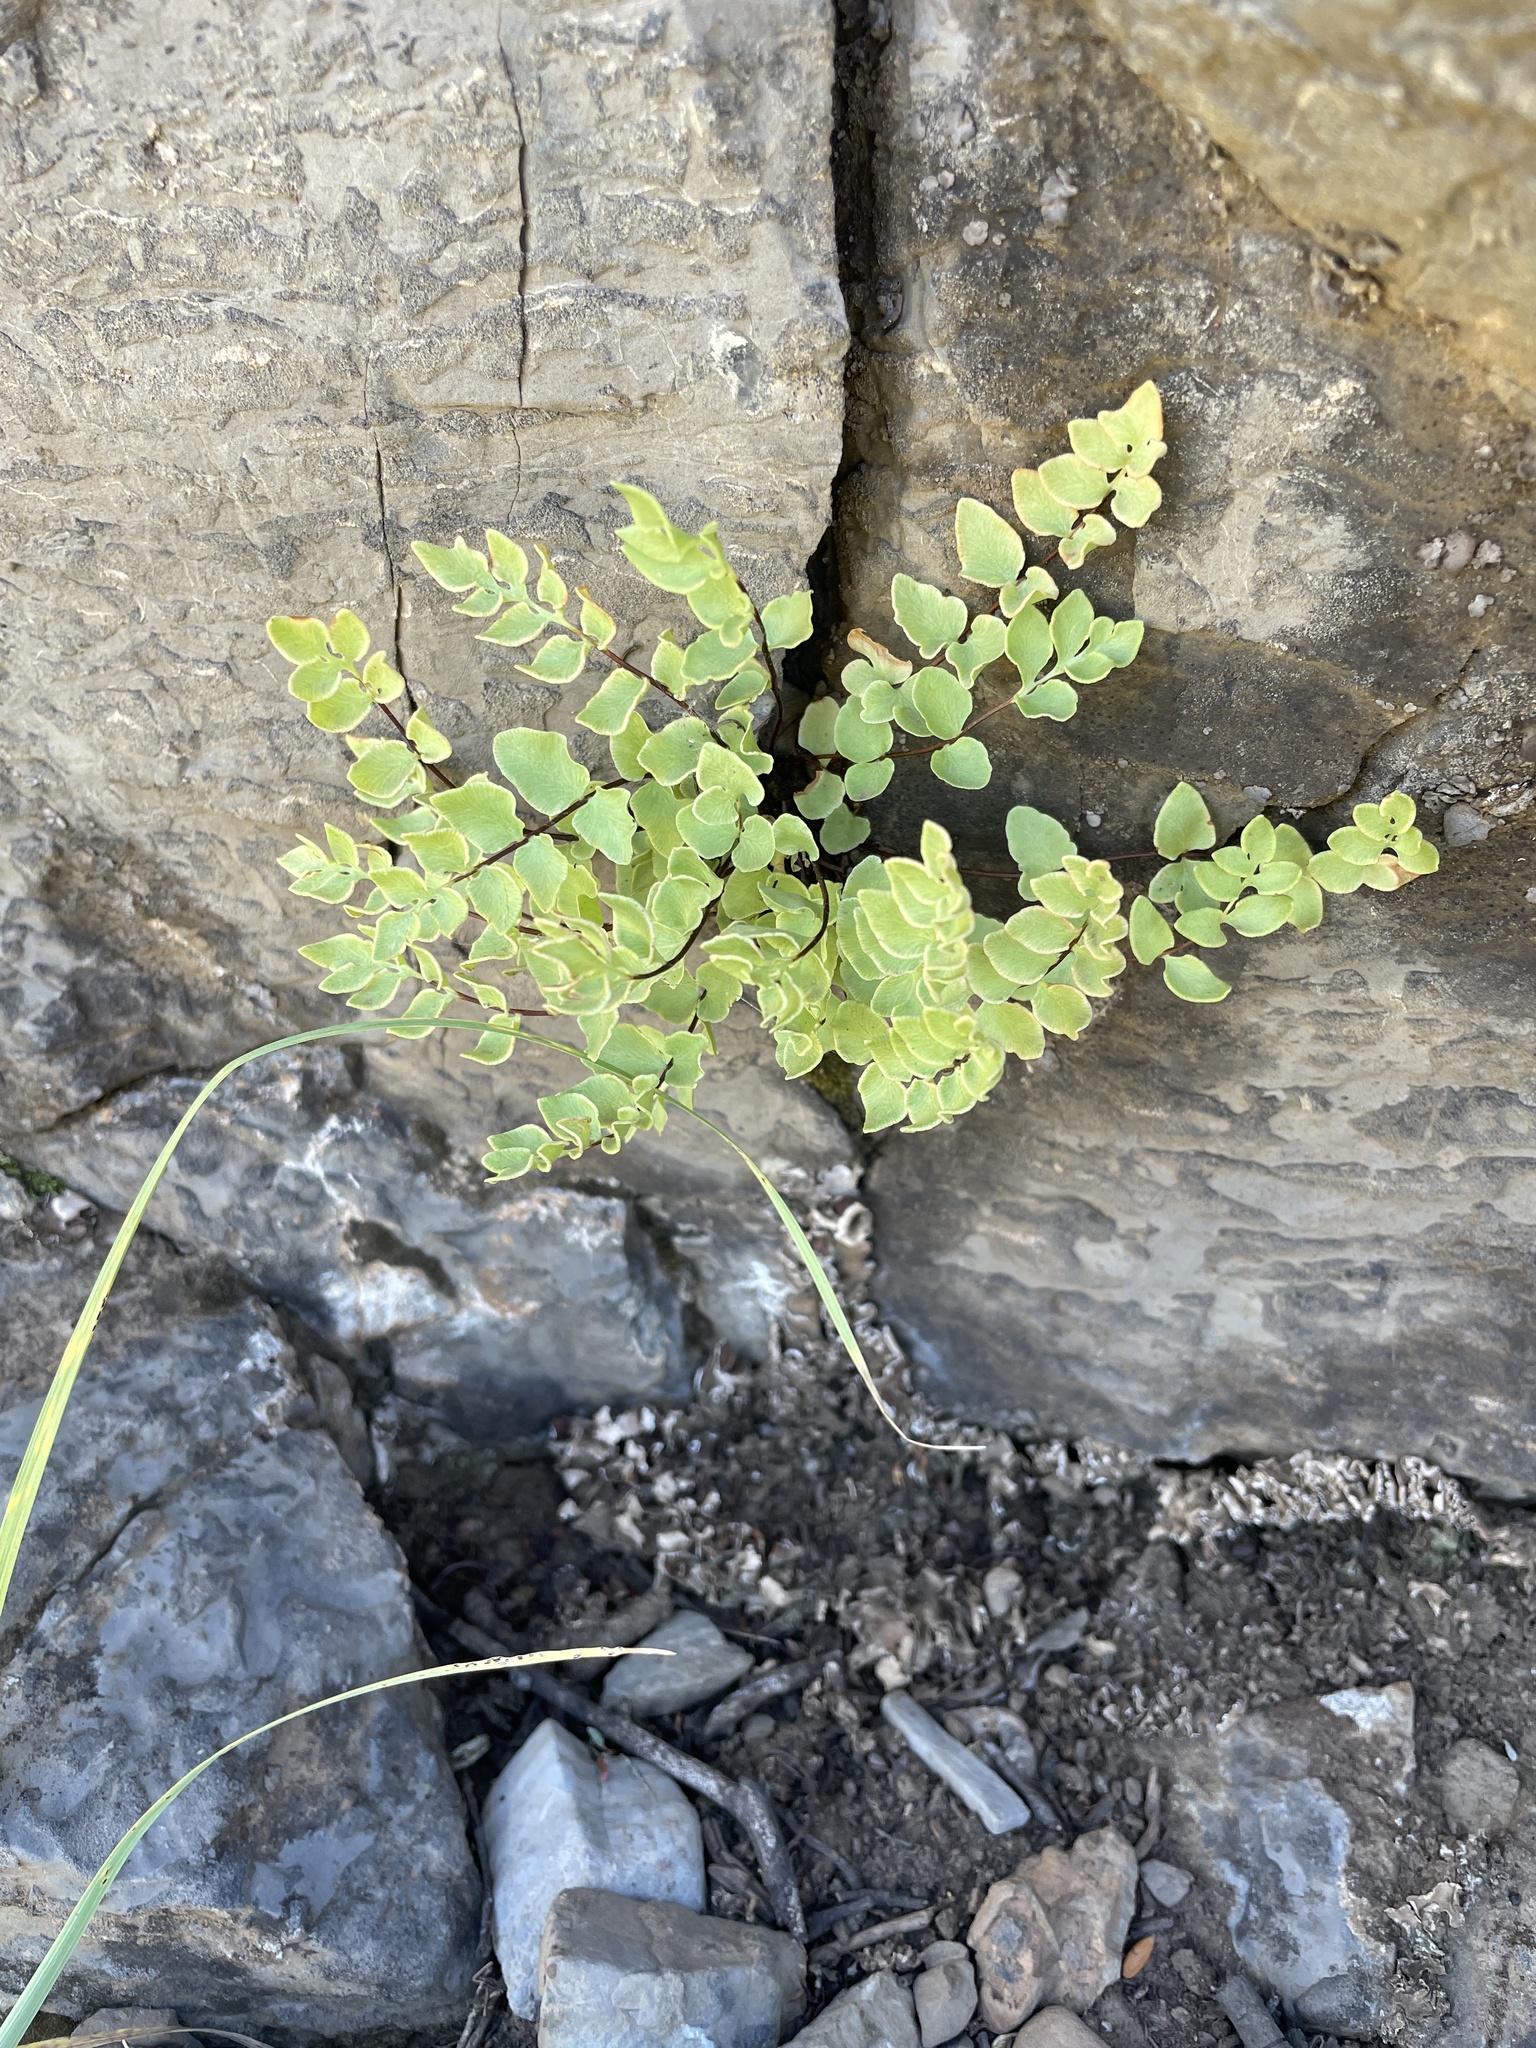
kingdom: Plantae
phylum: Tracheophyta
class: Polypodiopsida
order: Polypodiales
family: Pteridaceae
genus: Pellaea
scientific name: Pellaea breweri
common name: Brewer's cliffbrake
